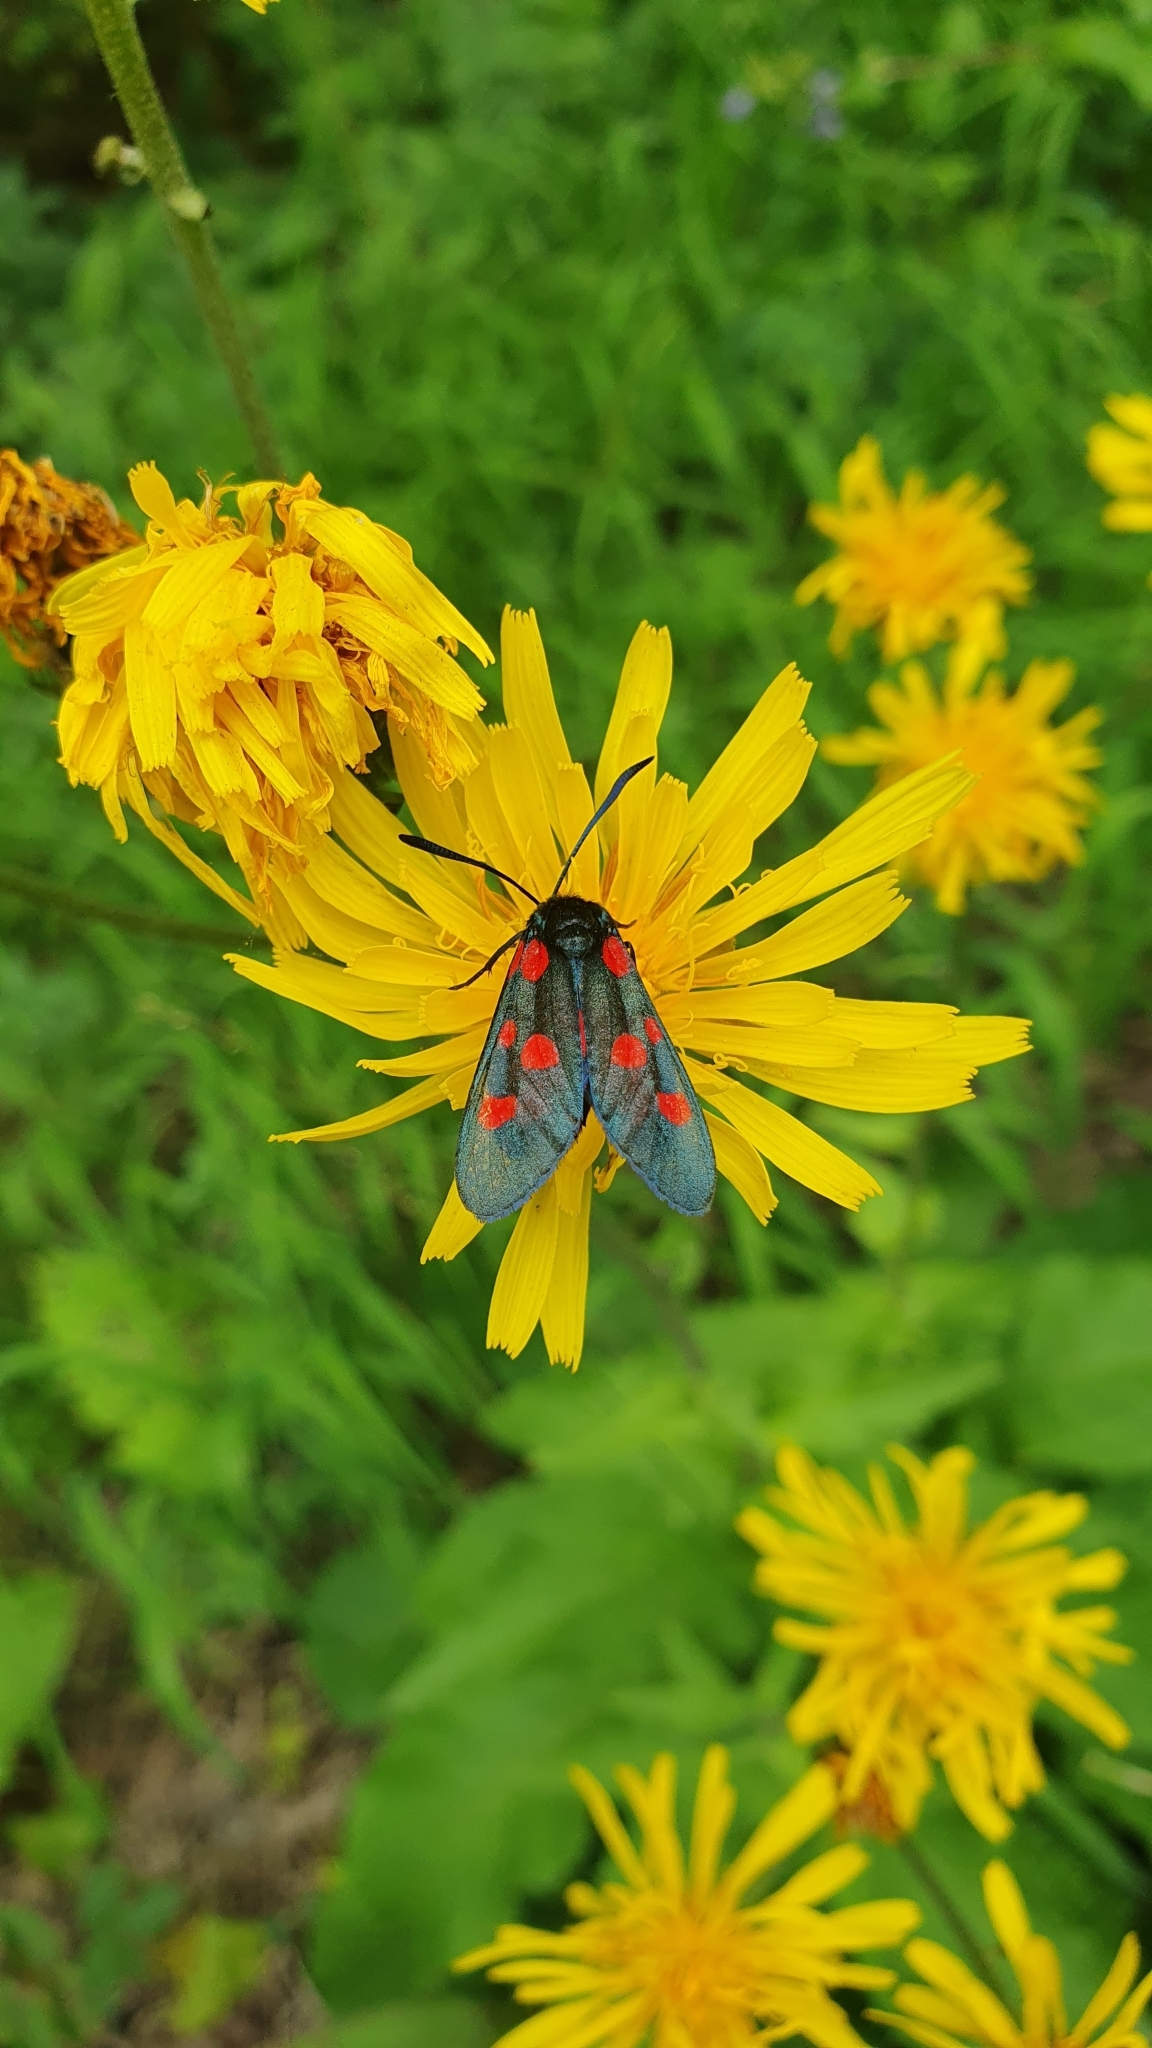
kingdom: Animalia
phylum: Arthropoda
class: Insecta
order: Lepidoptera
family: Zygaenidae
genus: Zygaena
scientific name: Zygaena lonicerae
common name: Narrow-bordered five-spot burnet
